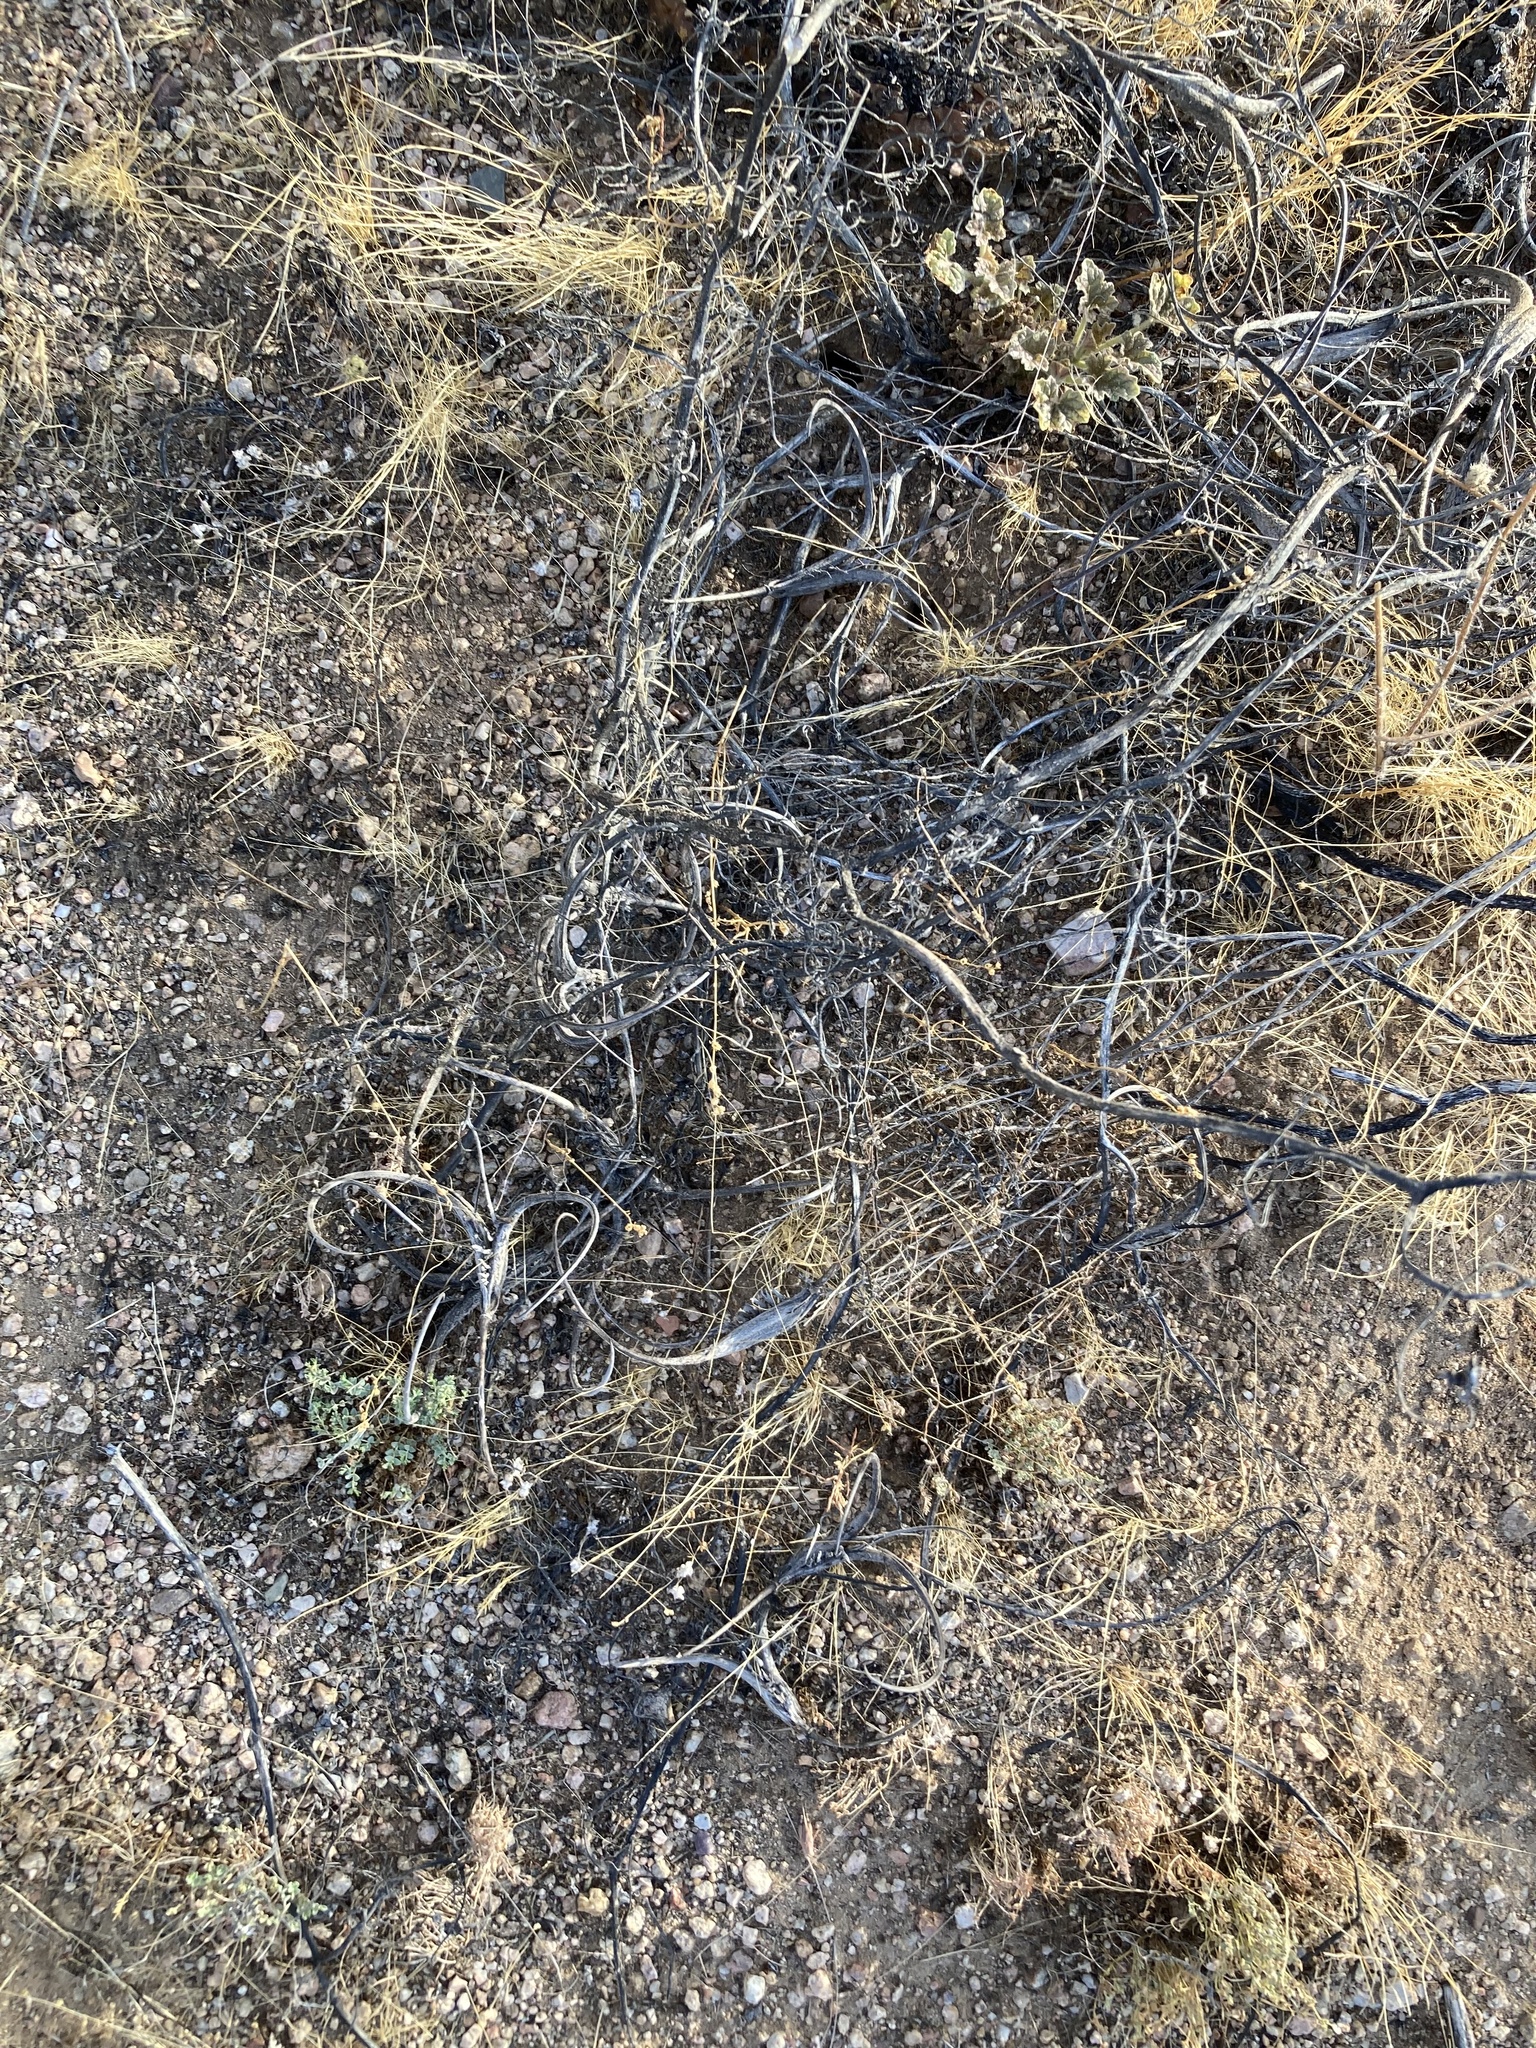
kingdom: Plantae
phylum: Tracheophyta
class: Magnoliopsida
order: Lamiales
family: Martyniaceae
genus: Proboscidea
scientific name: Proboscidea althaeifolia
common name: Desert unicorn-plant
